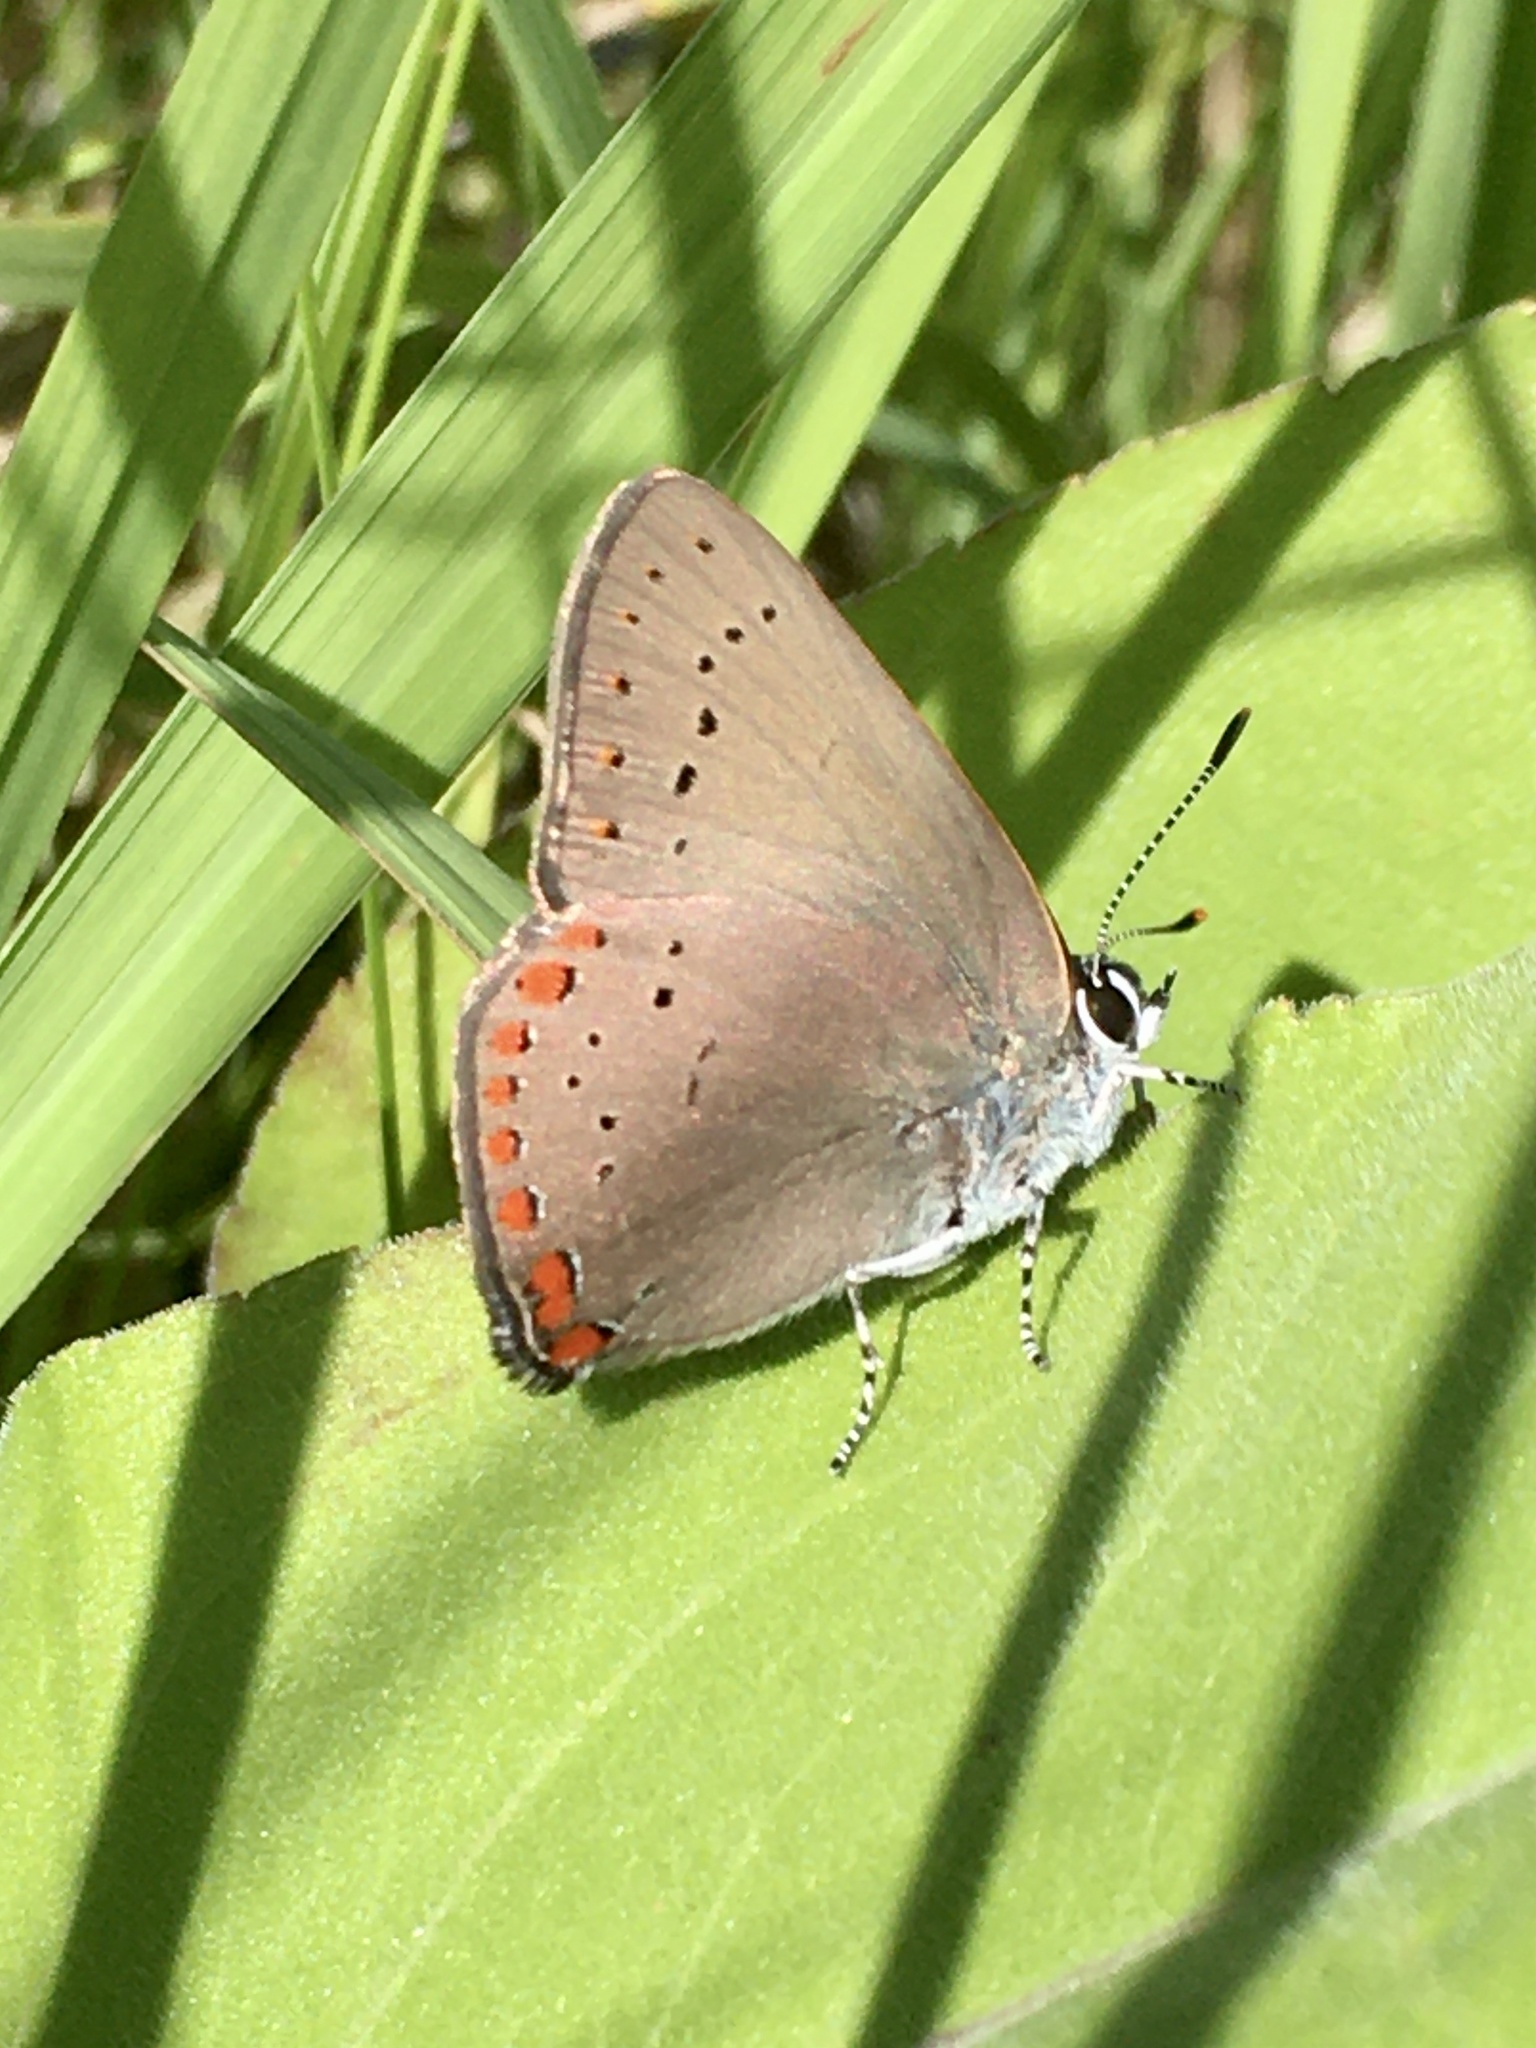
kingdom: Animalia
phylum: Arthropoda
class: Insecta
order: Lepidoptera
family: Lycaenidae
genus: Harkenclenus
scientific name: Harkenclenus titus
